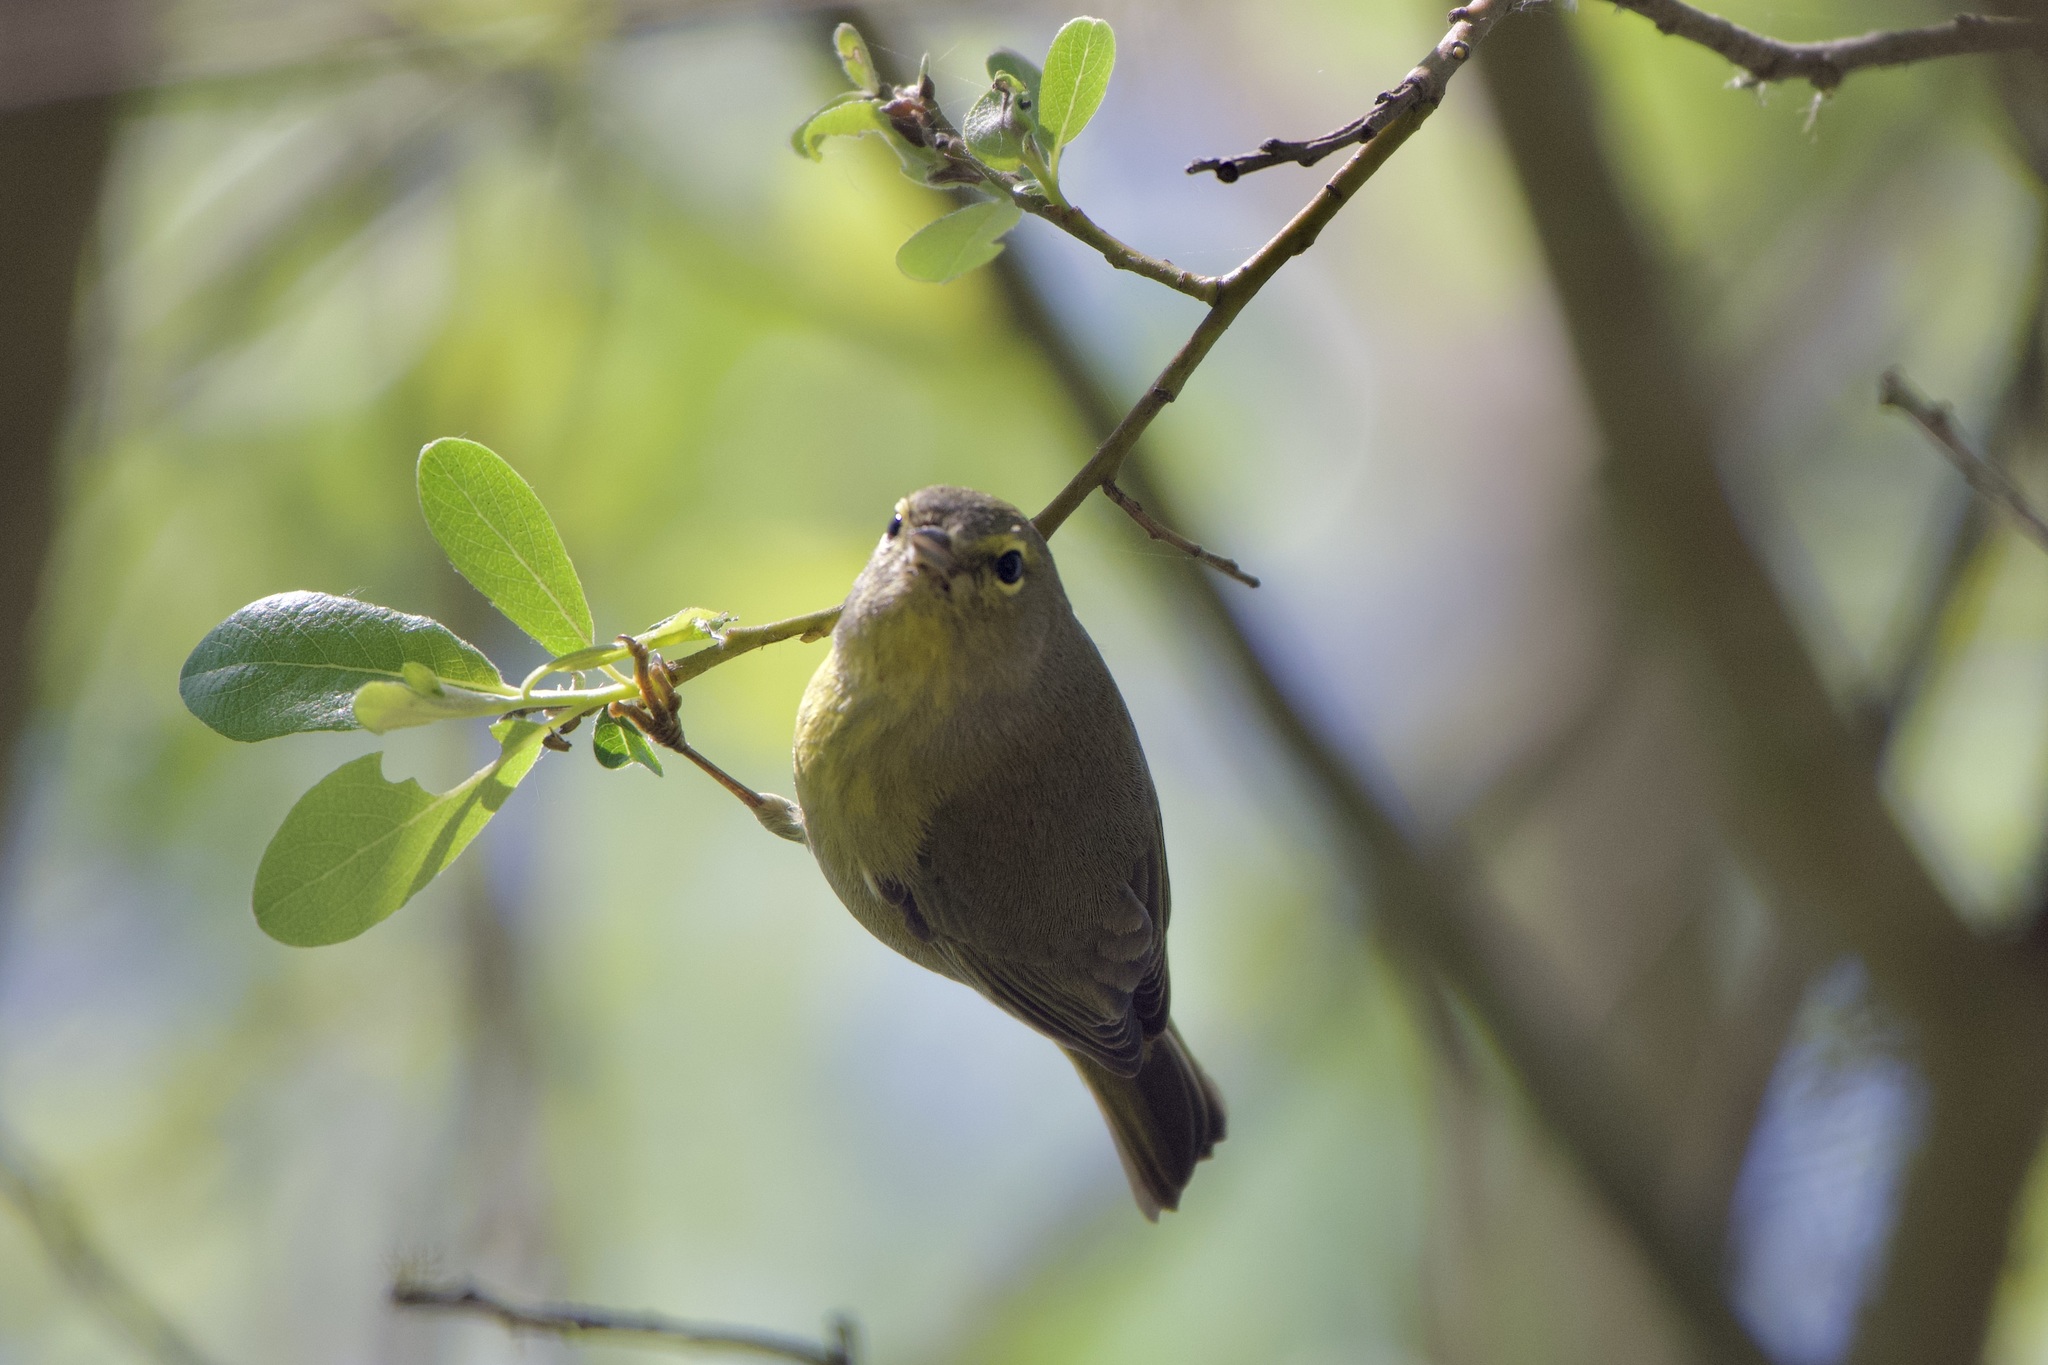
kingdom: Animalia
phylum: Chordata
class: Aves
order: Passeriformes
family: Parulidae
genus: Leiothlypis
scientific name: Leiothlypis celata
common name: Orange-crowned warbler
